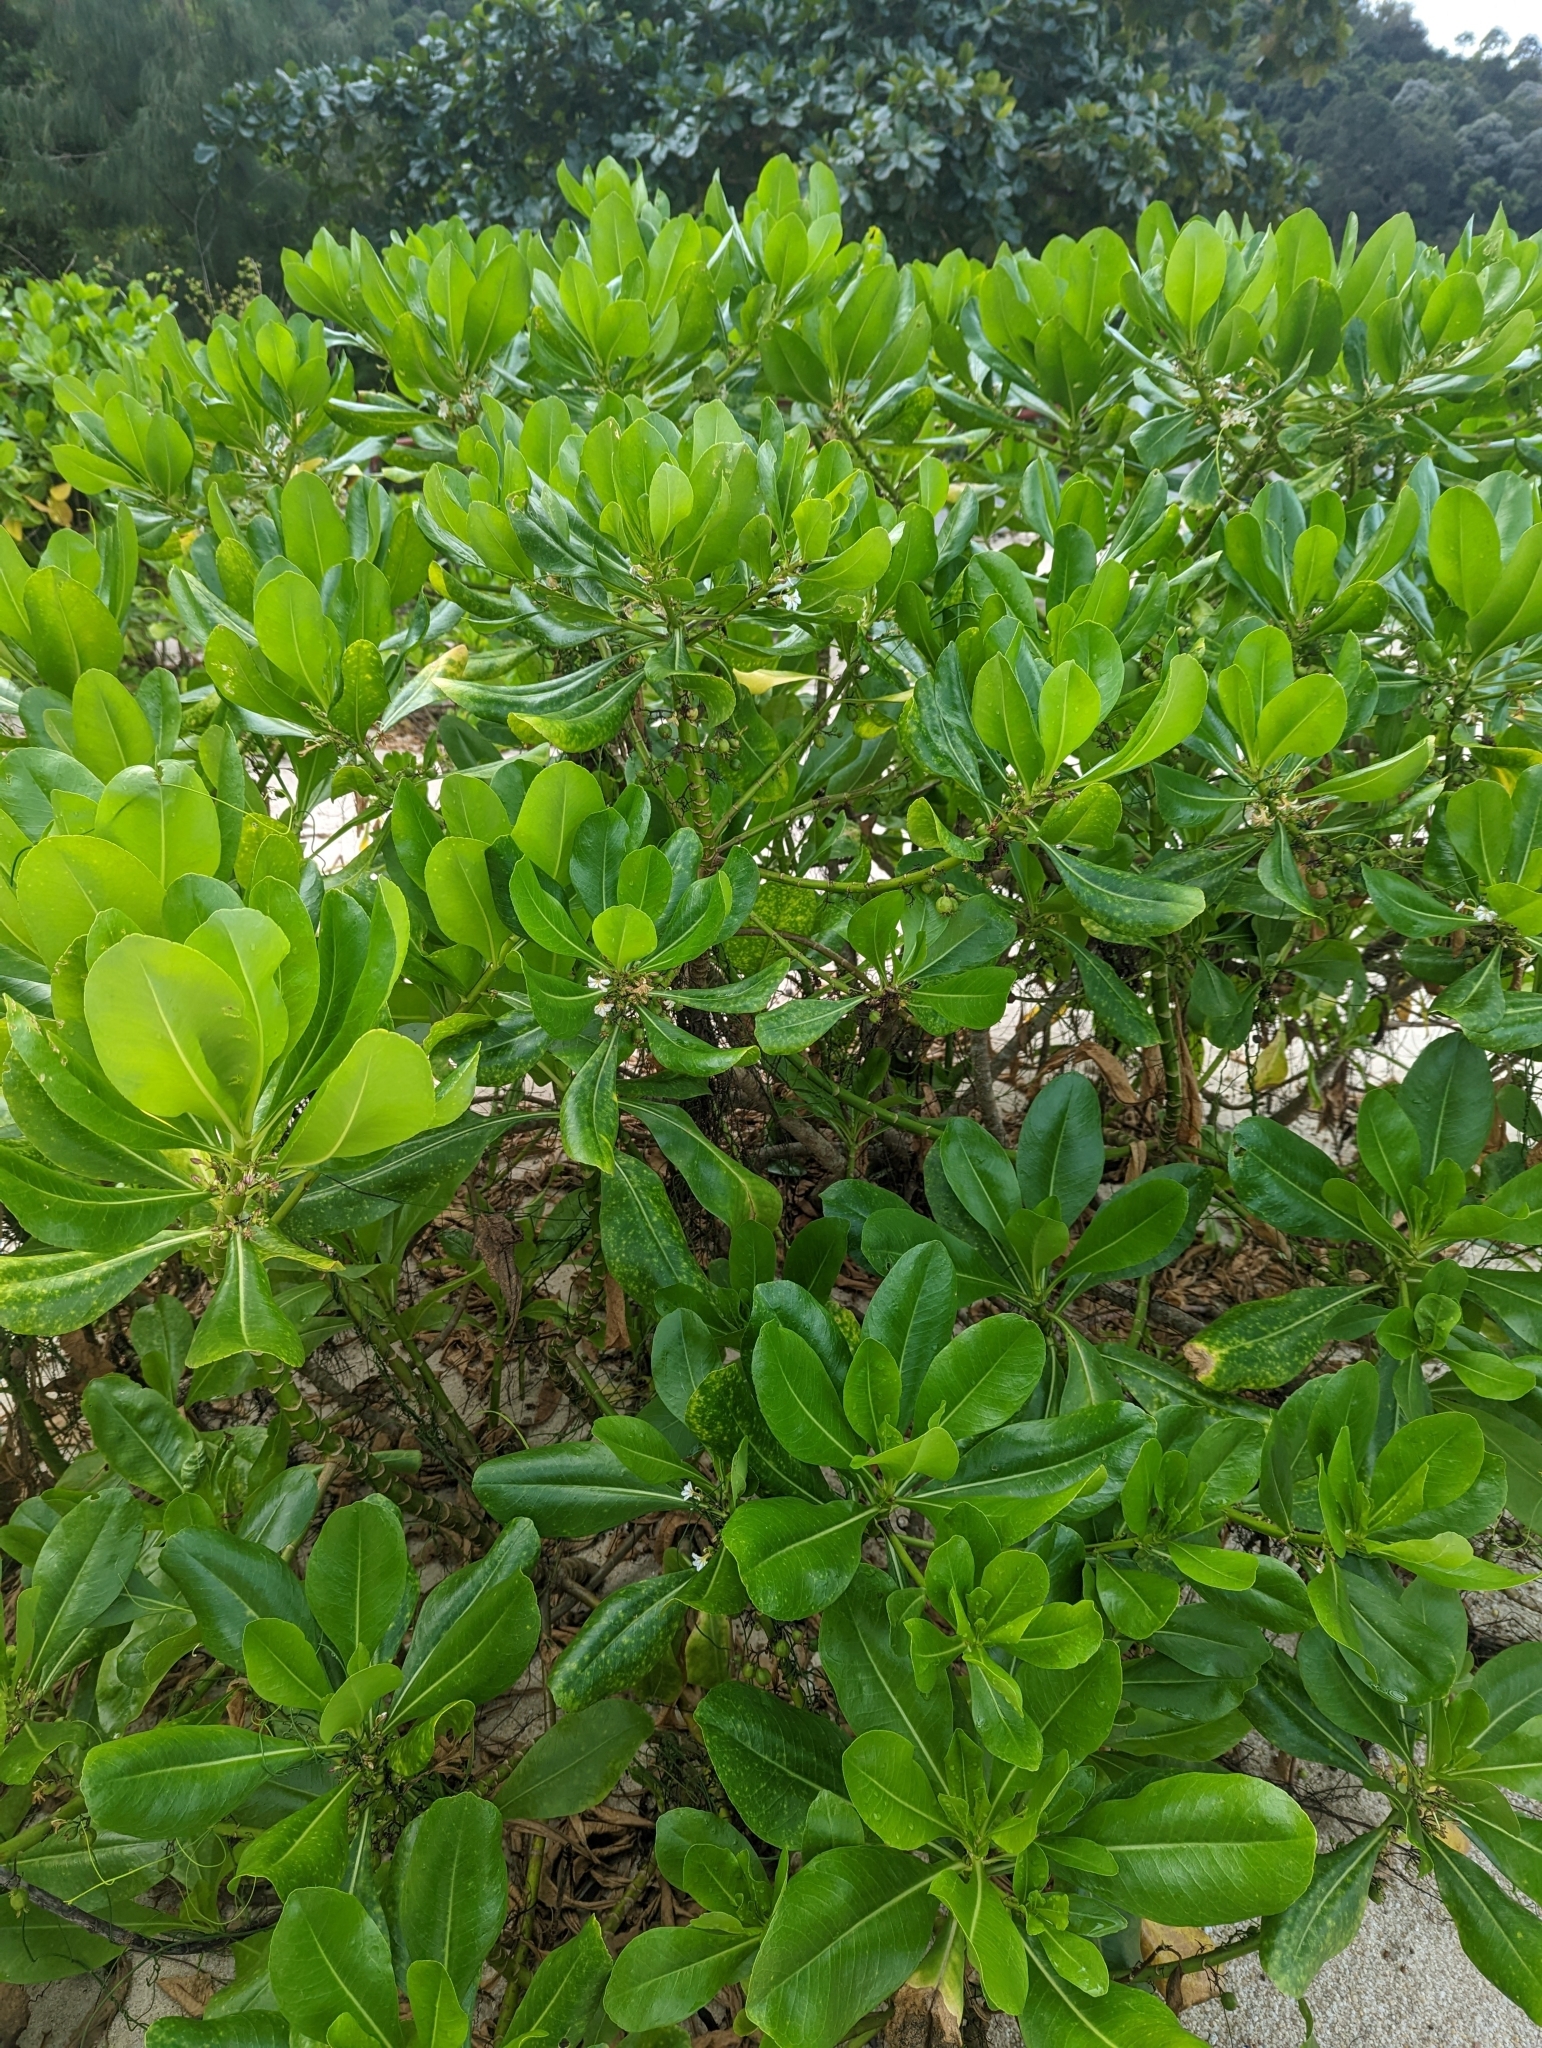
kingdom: Plantae
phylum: Tracheophyta
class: Magnoliopsida
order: Asterales
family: Goodeniaceae
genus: Scaevola
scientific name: Scaevola taccada
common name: Sea lettucetree
